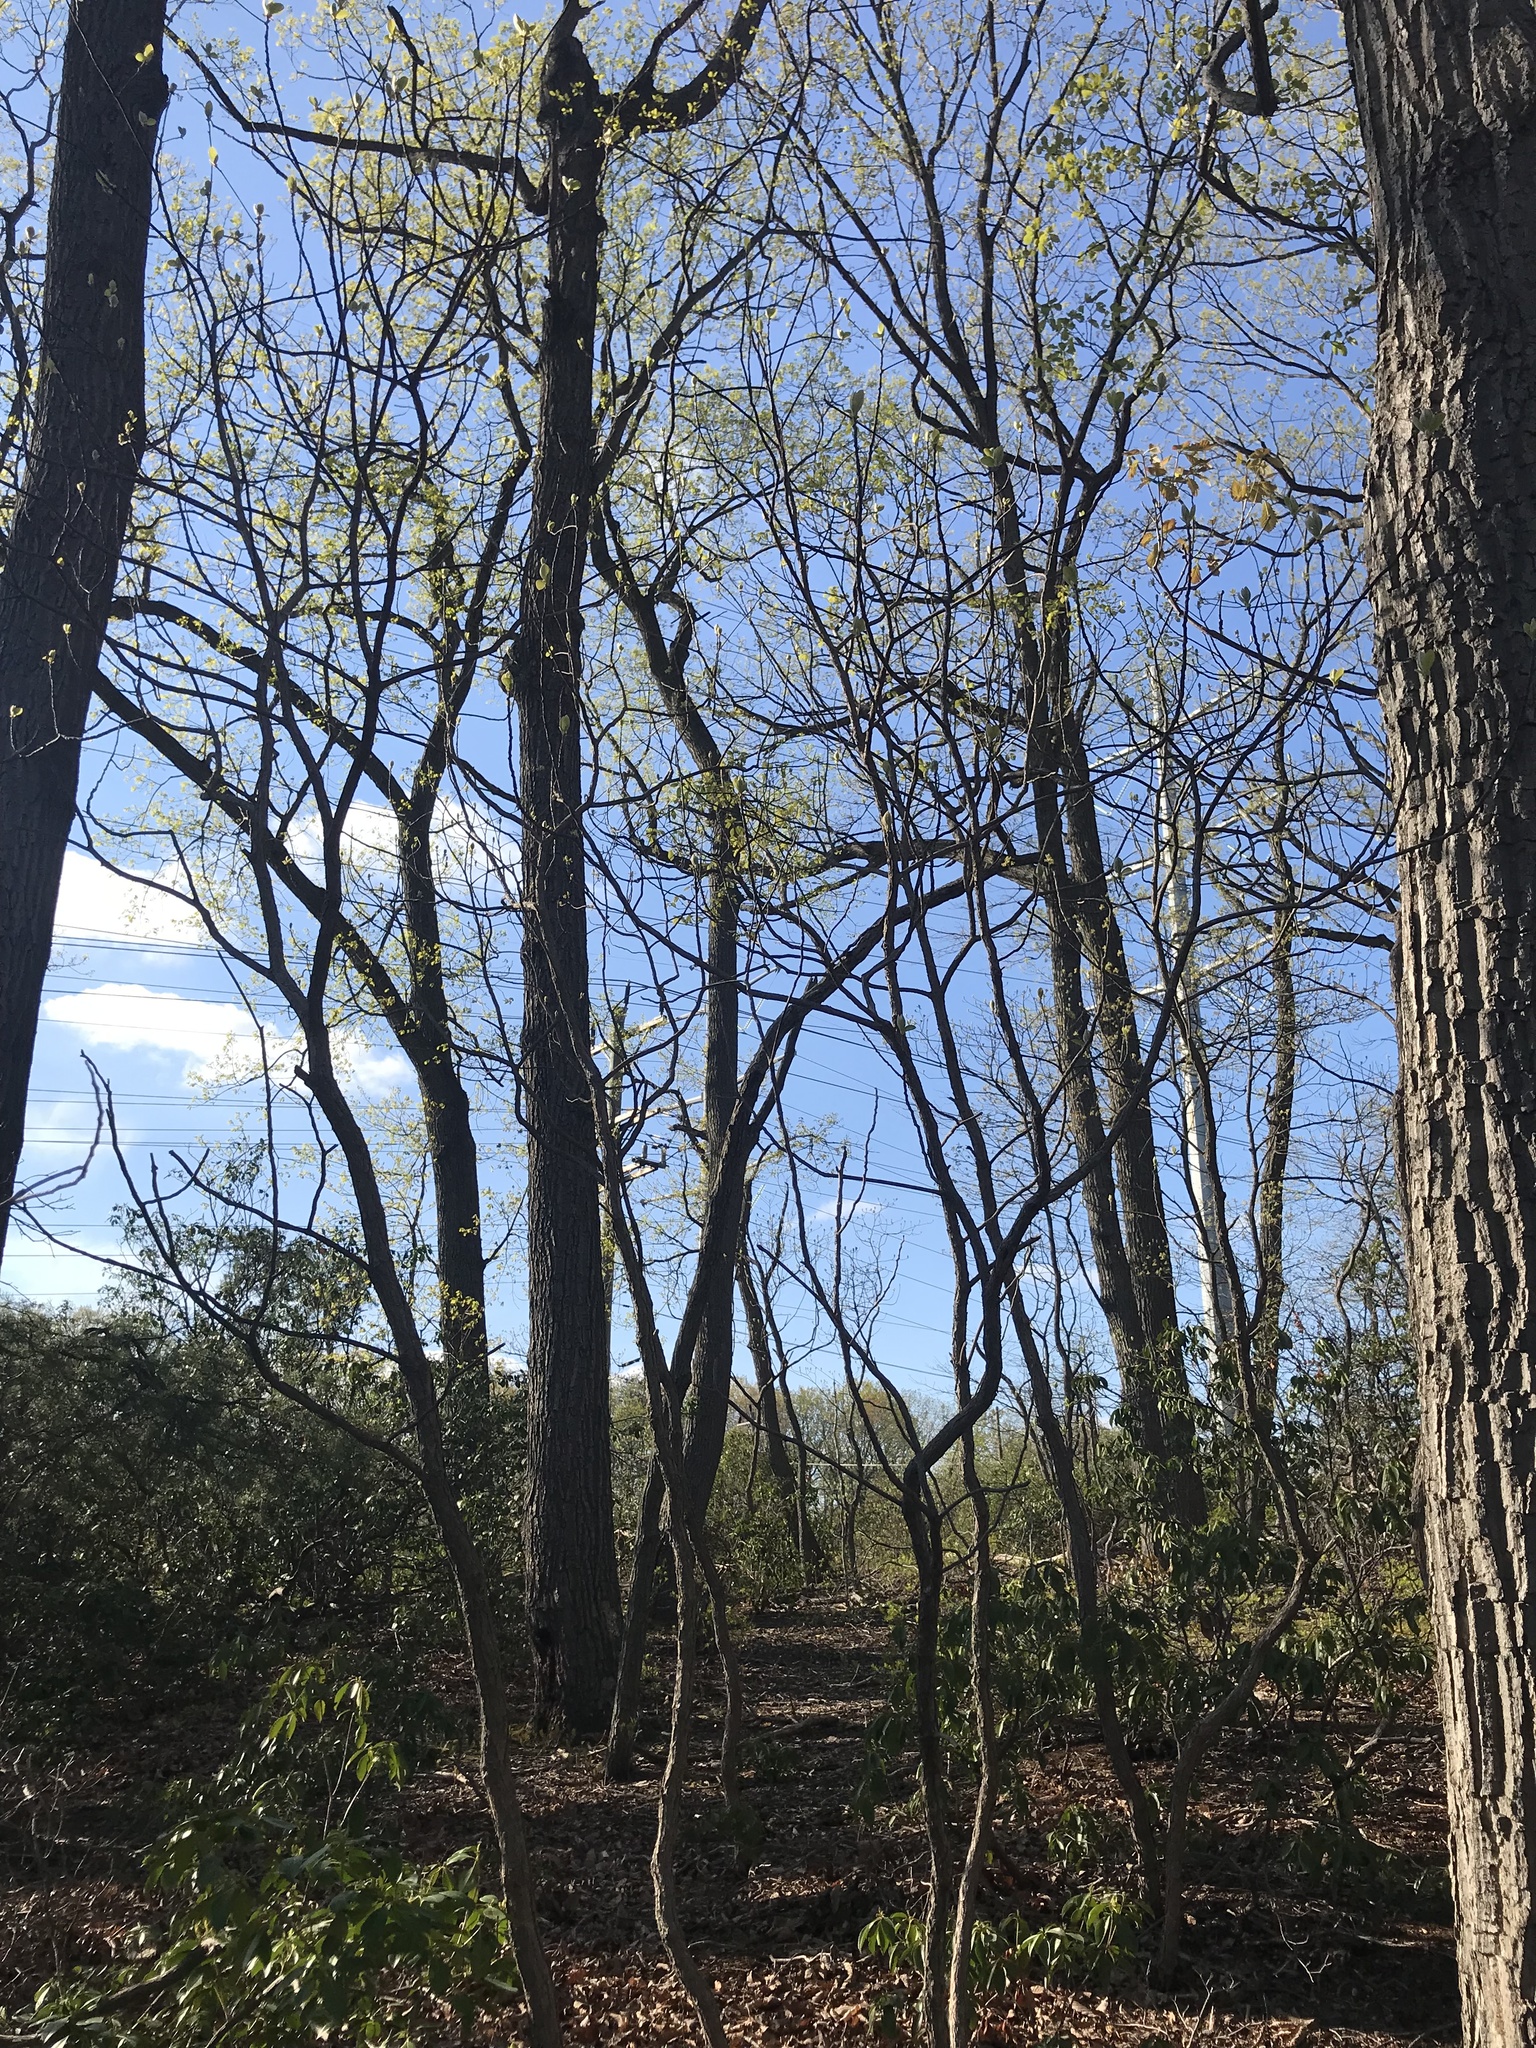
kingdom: Plantae
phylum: Tracheophyta
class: Magnoliopsida
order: Laurales
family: Lauraceae
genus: Sassafras
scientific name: Sassafras albidum
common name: Sassafras
